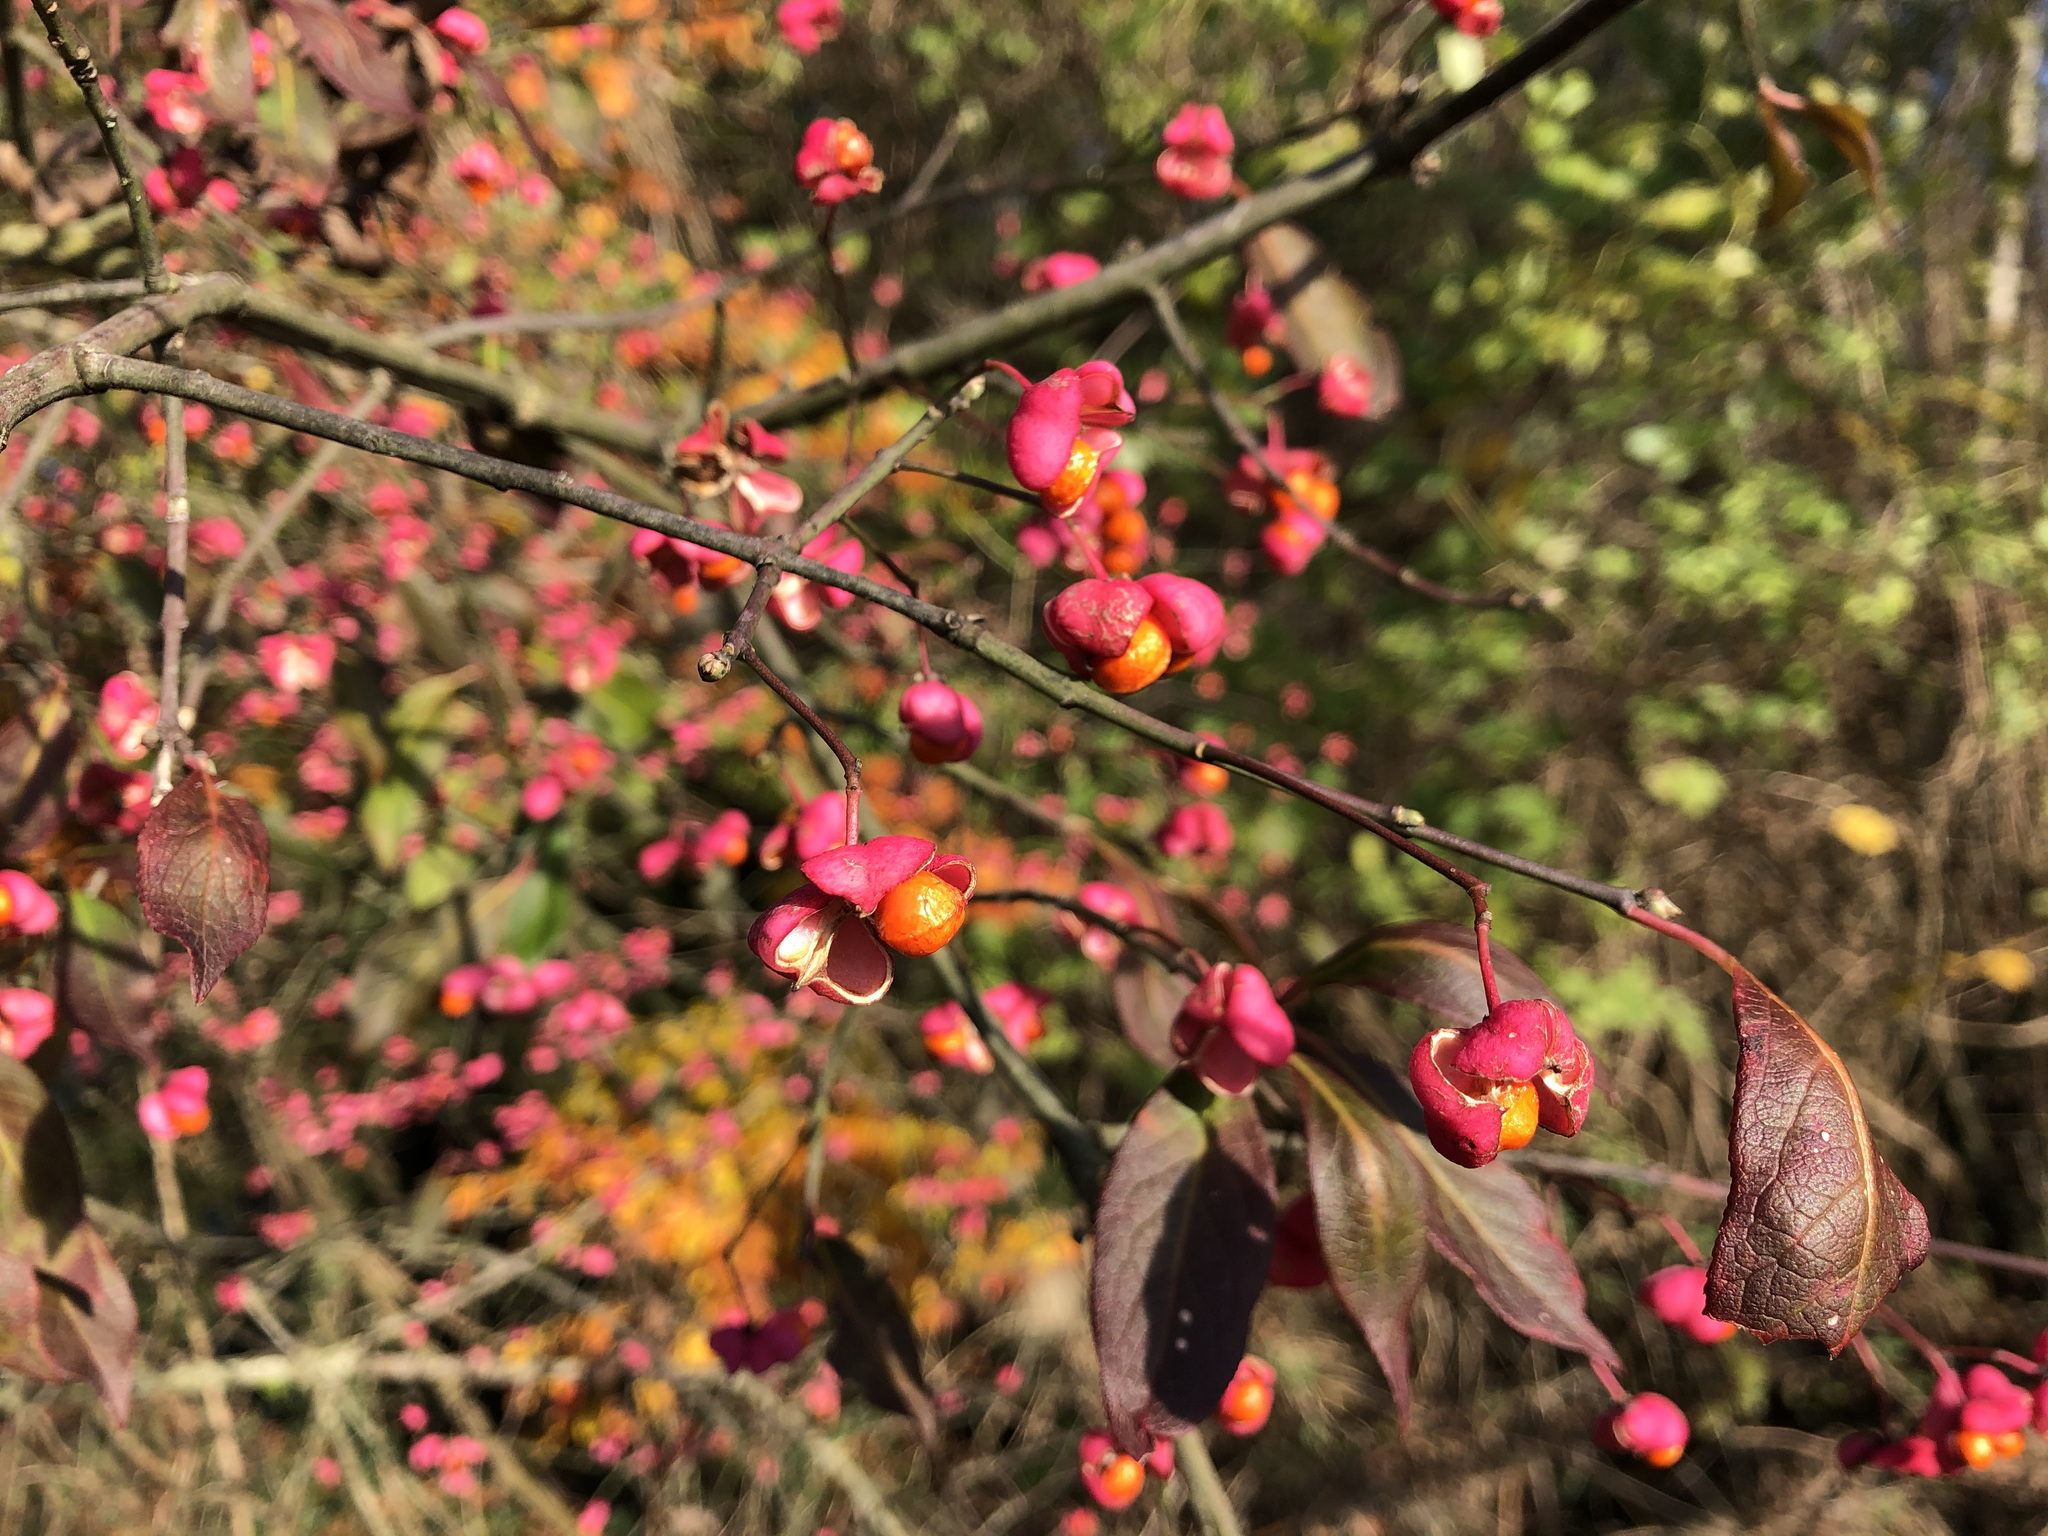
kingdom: Plantae
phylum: Tracheophyta
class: Magnoliopsida
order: Celastrales
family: Celastraceae
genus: Euonymus
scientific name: Euonymus europaeus
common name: Spindle
